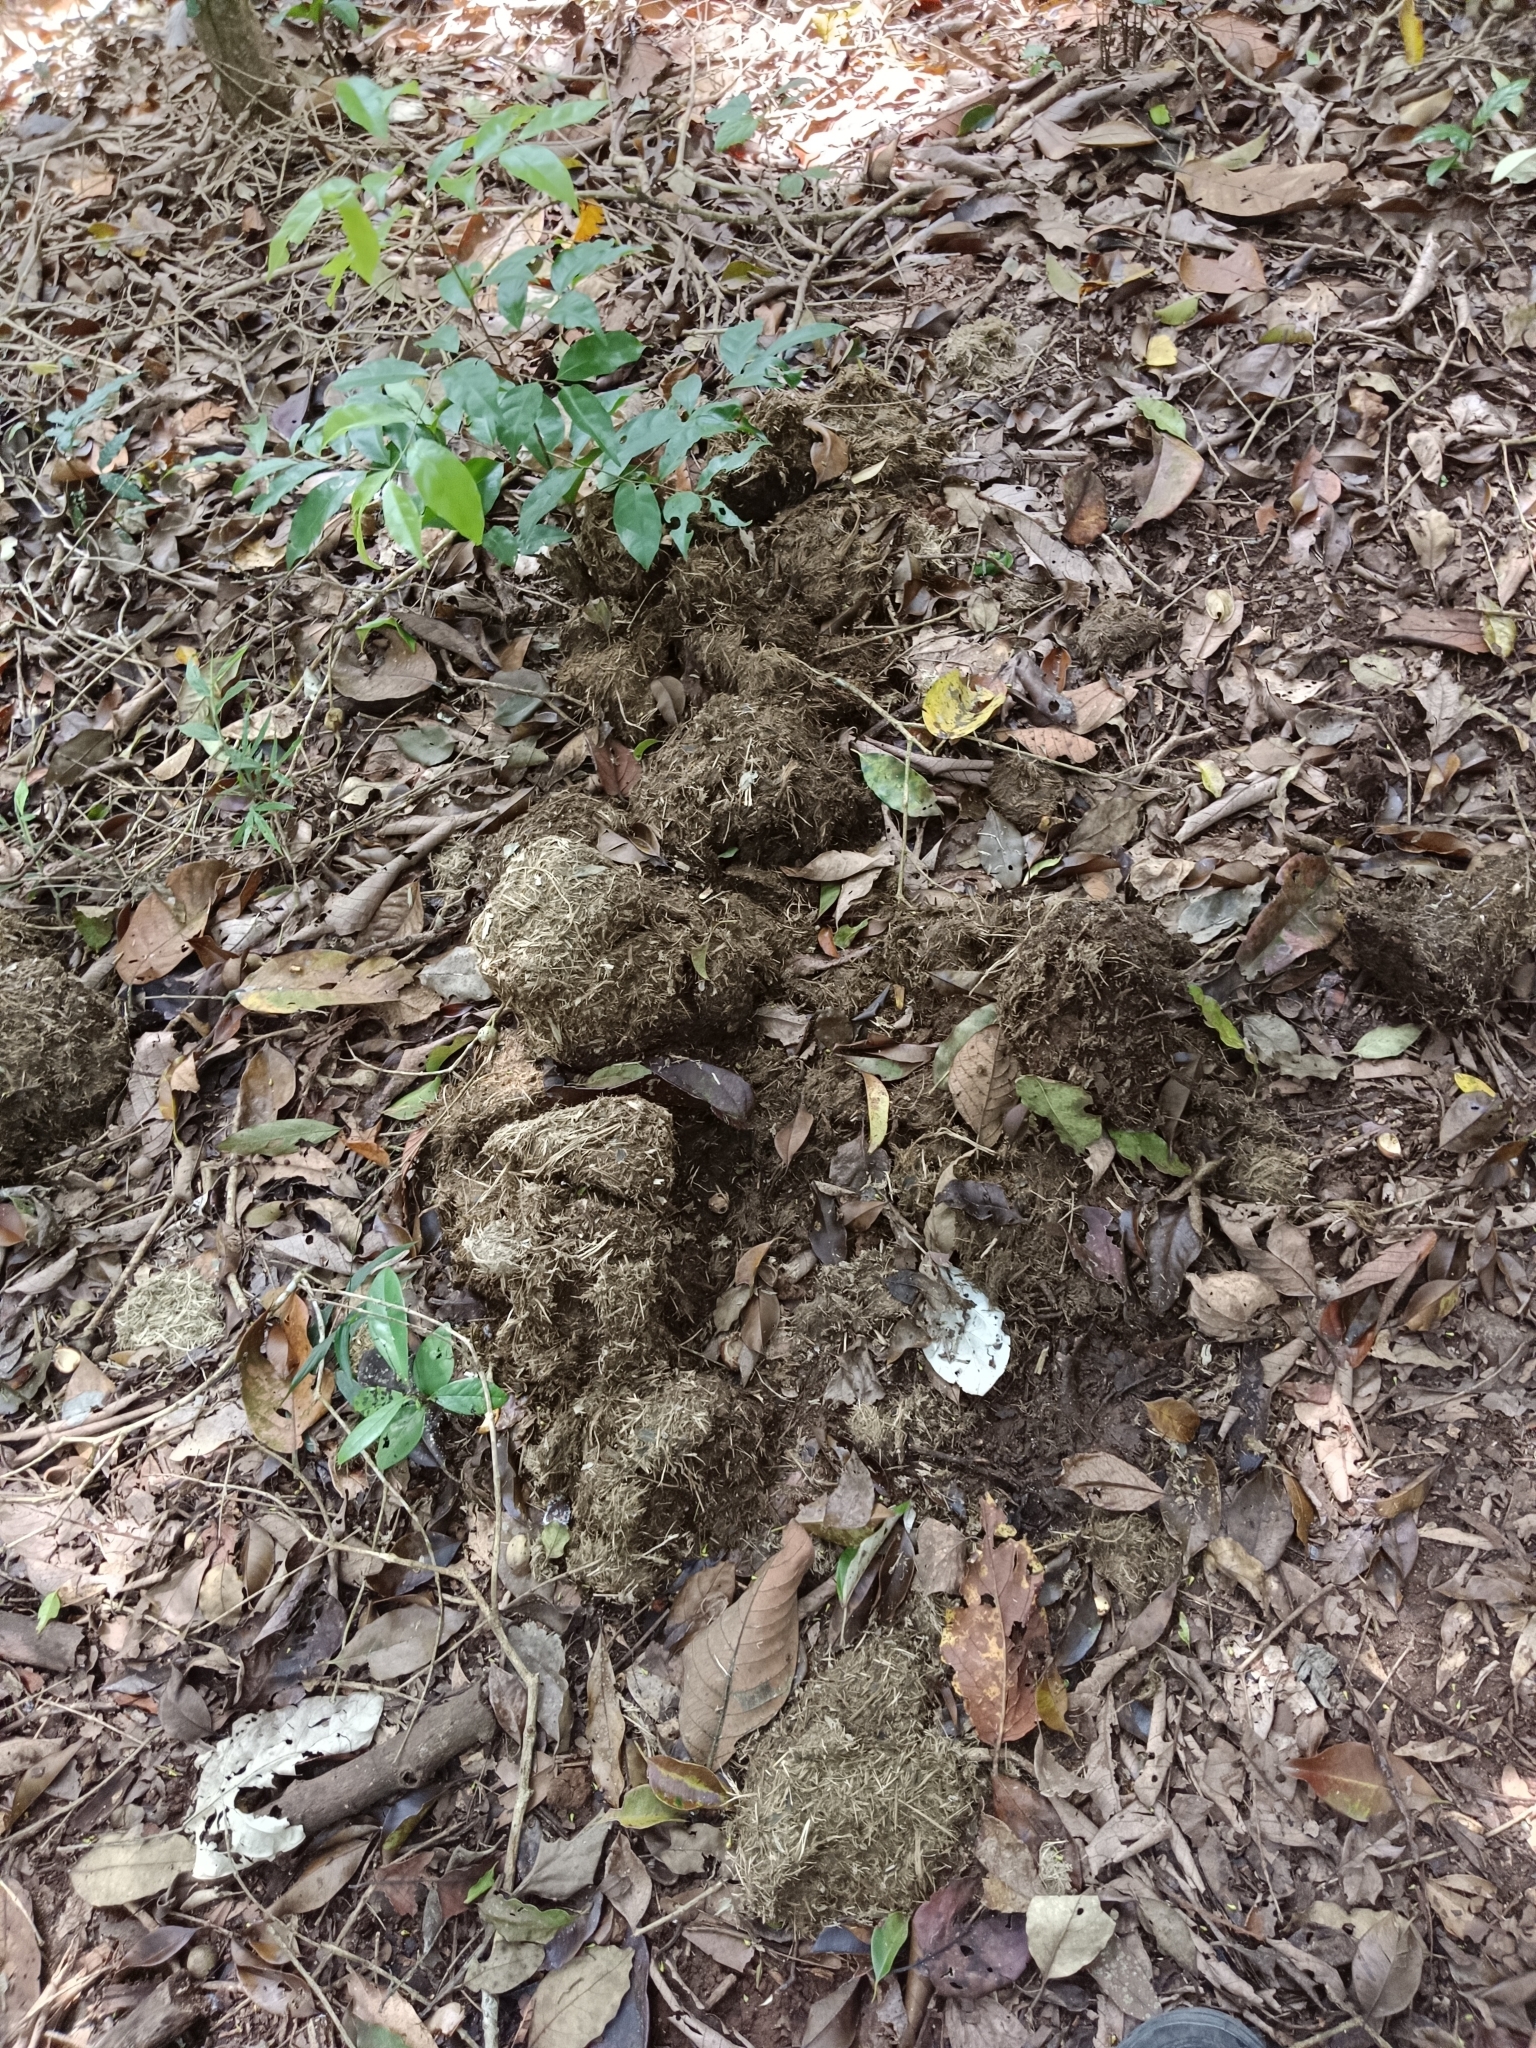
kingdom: Animalia
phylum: Chordata
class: Mammalia
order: Proboscidea
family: Elephantidae
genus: Elephas
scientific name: Elephas maximus
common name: Asian elephant
